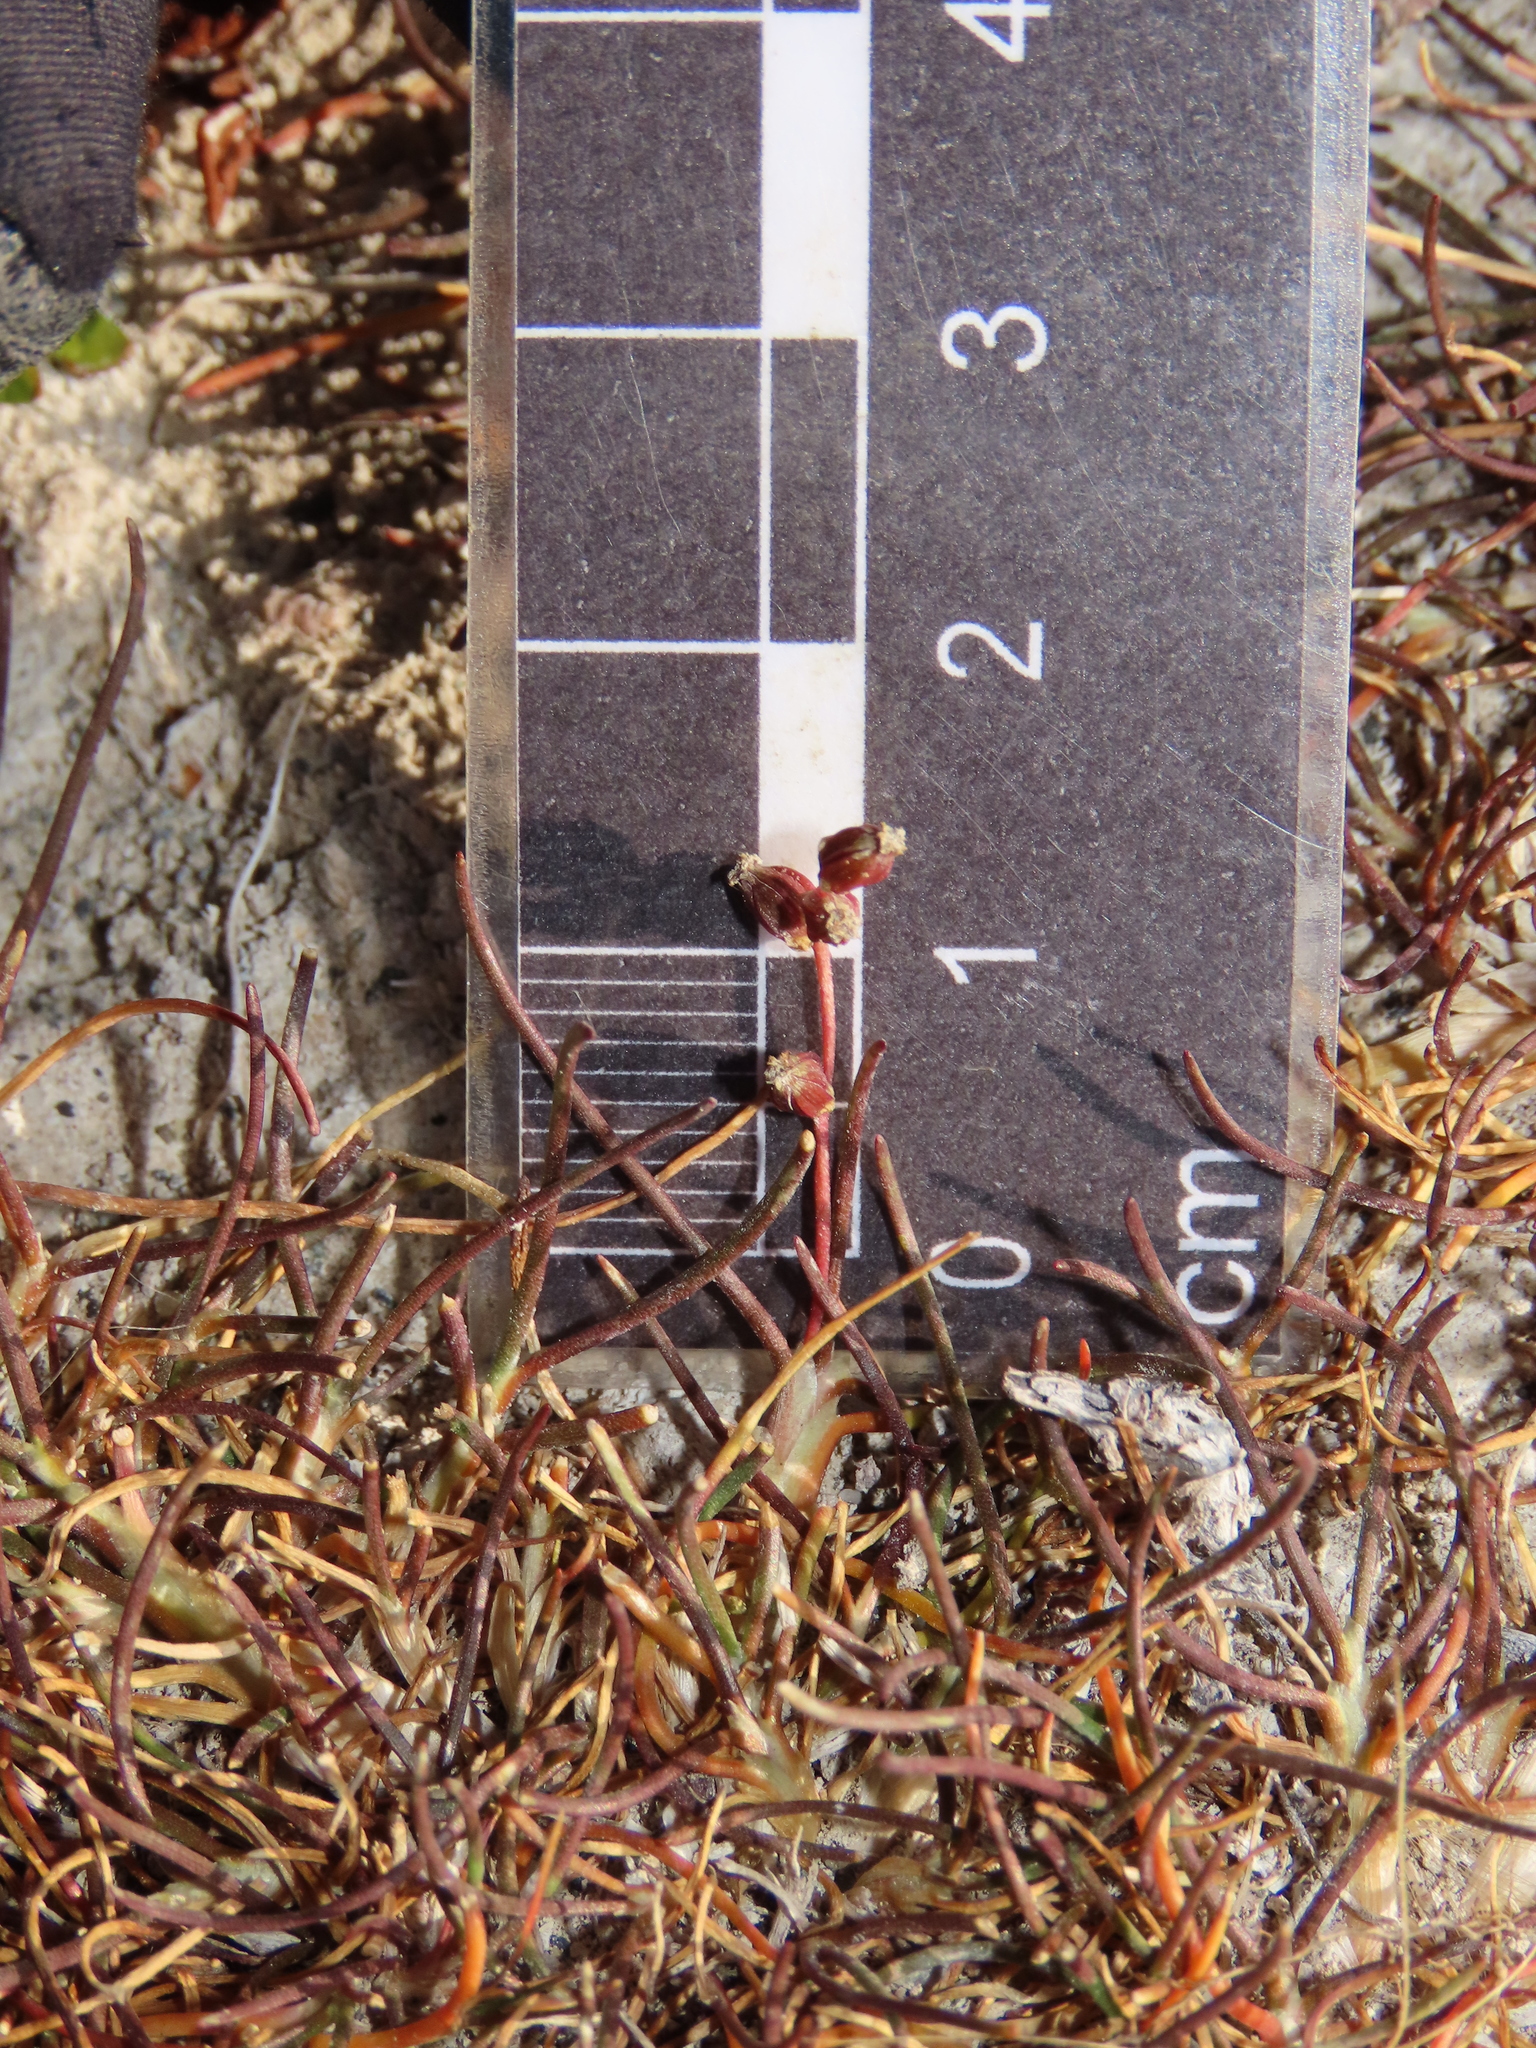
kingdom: Plantae
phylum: Tracheophyta
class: Liliopsida
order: Alismatales
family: Juncaginaceae
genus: Triglochin
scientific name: Triglochin maritima
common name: Sea arrowgrass
